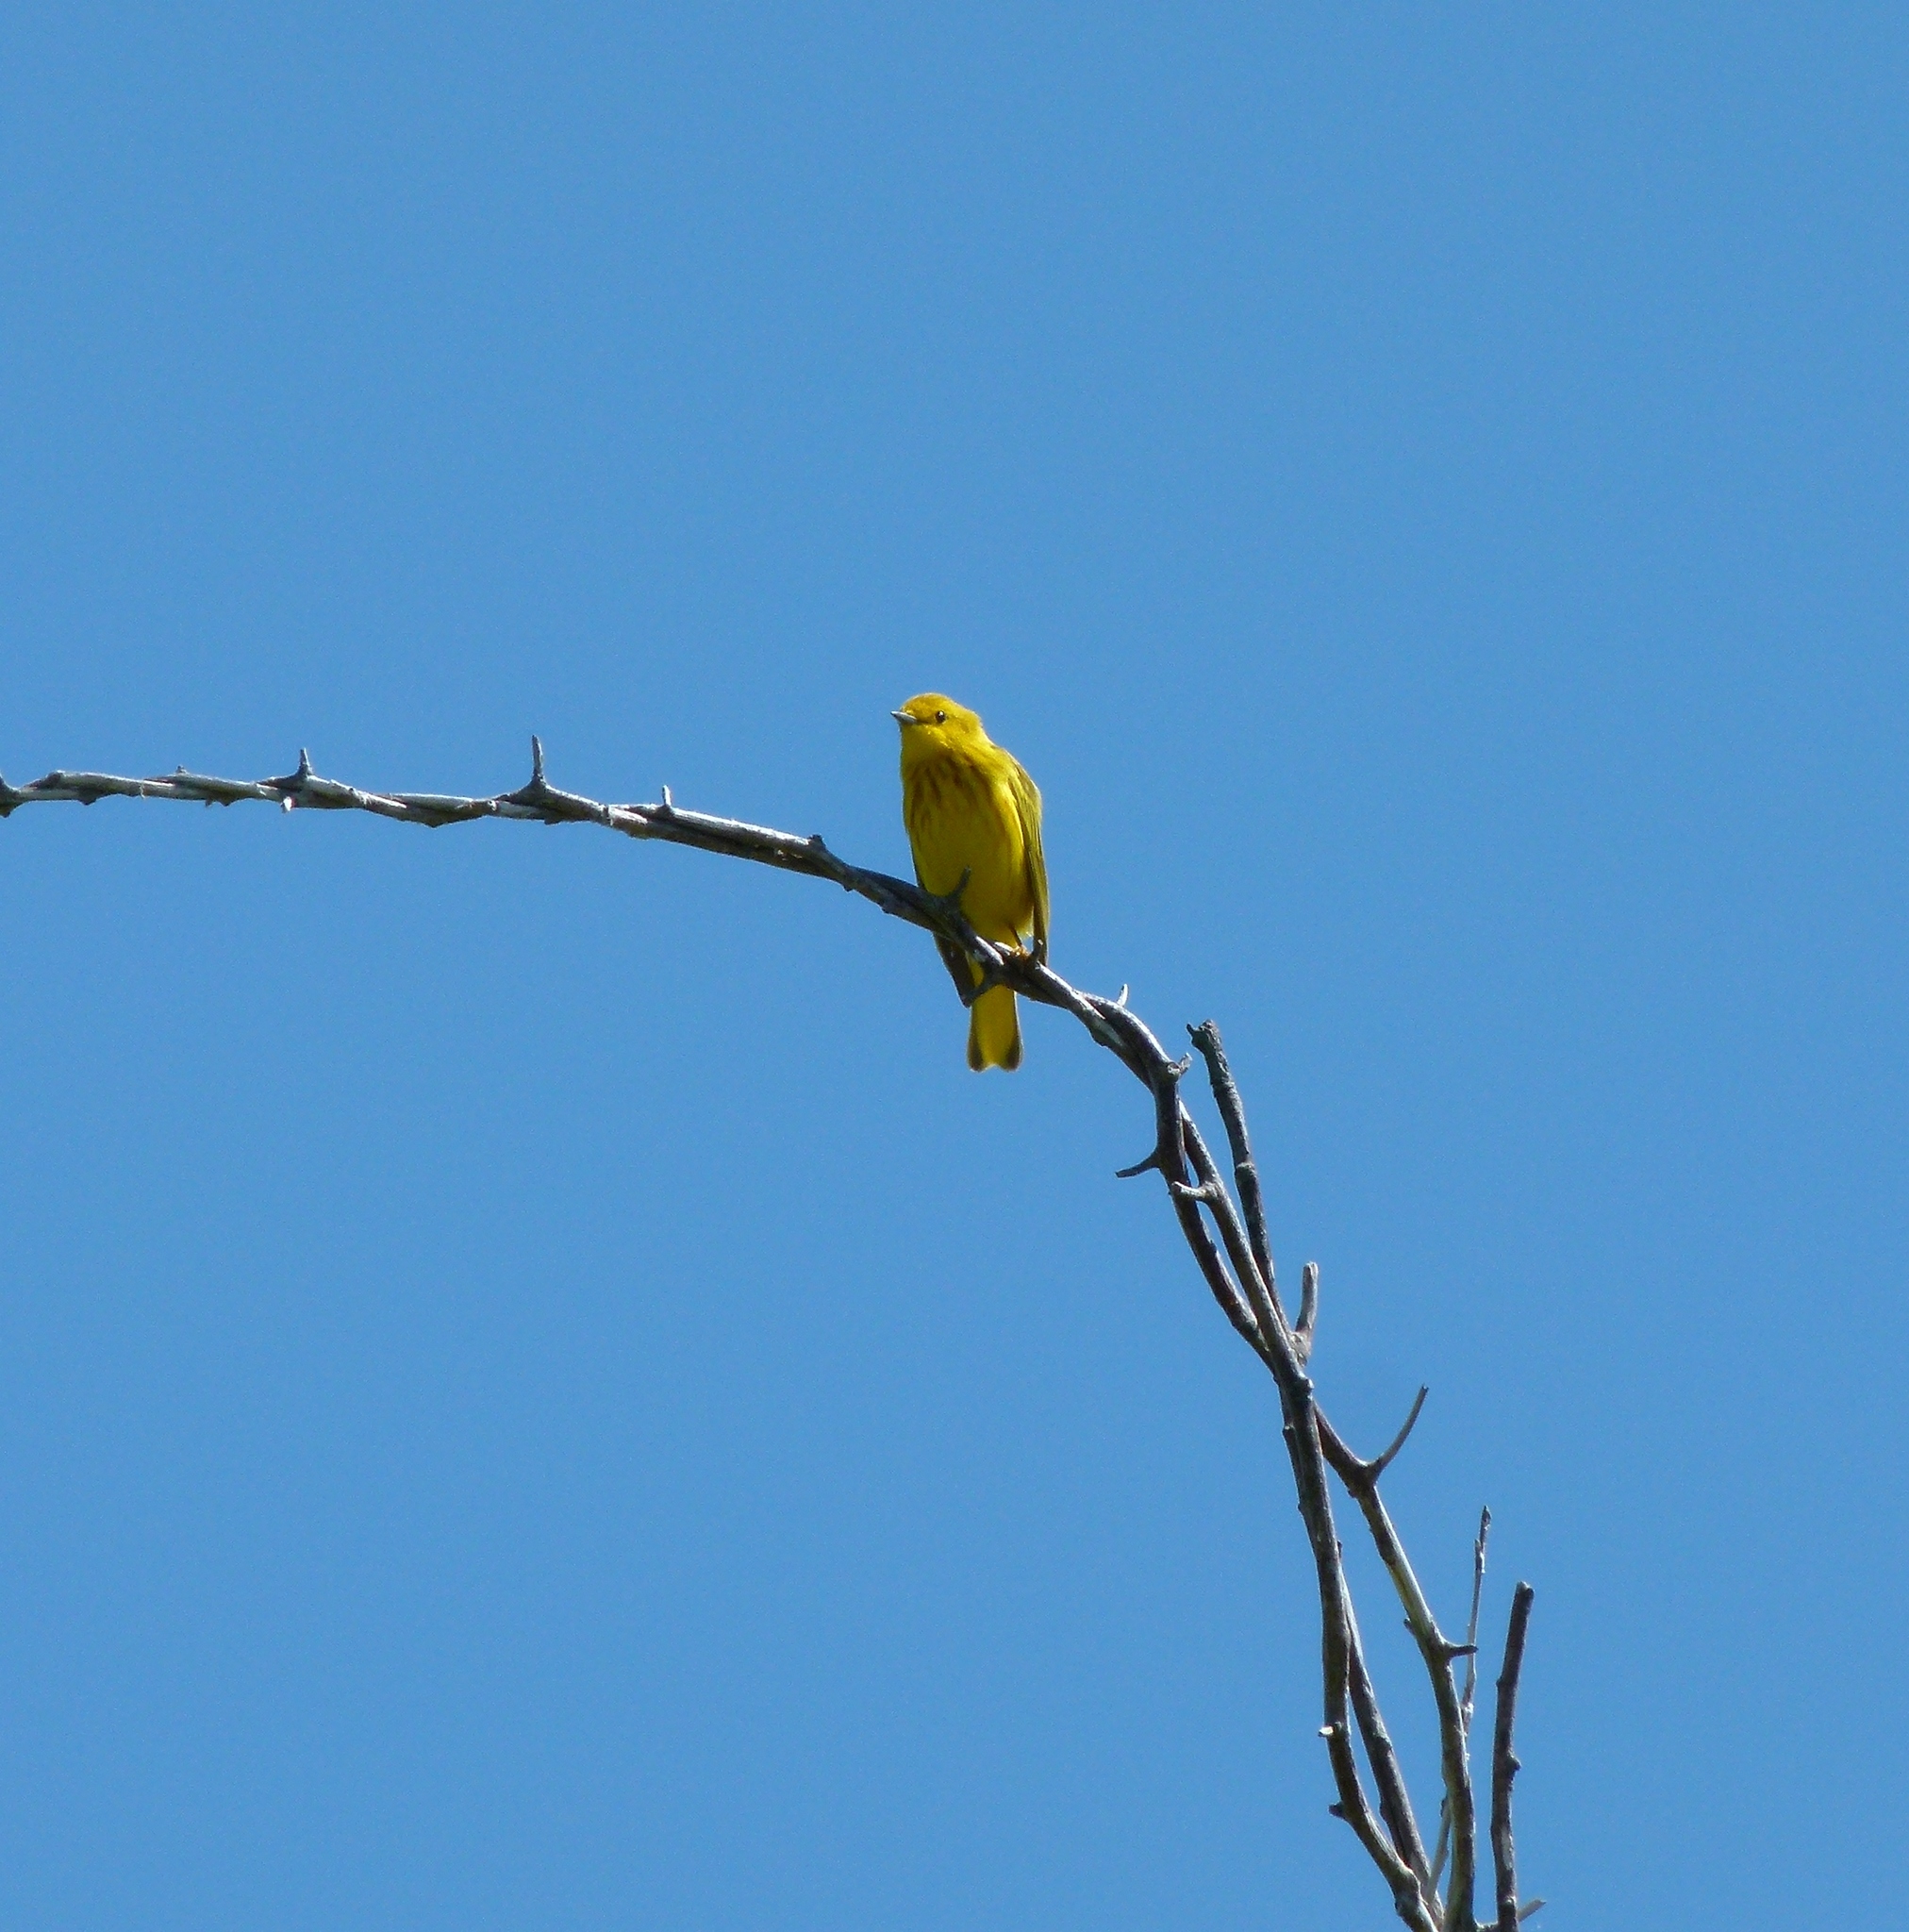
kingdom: Animalia
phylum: Chordata
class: Aves
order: Passeriformes
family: Parulidae
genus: Setophaga
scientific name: Setophaga petechia
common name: Yellow warbler
